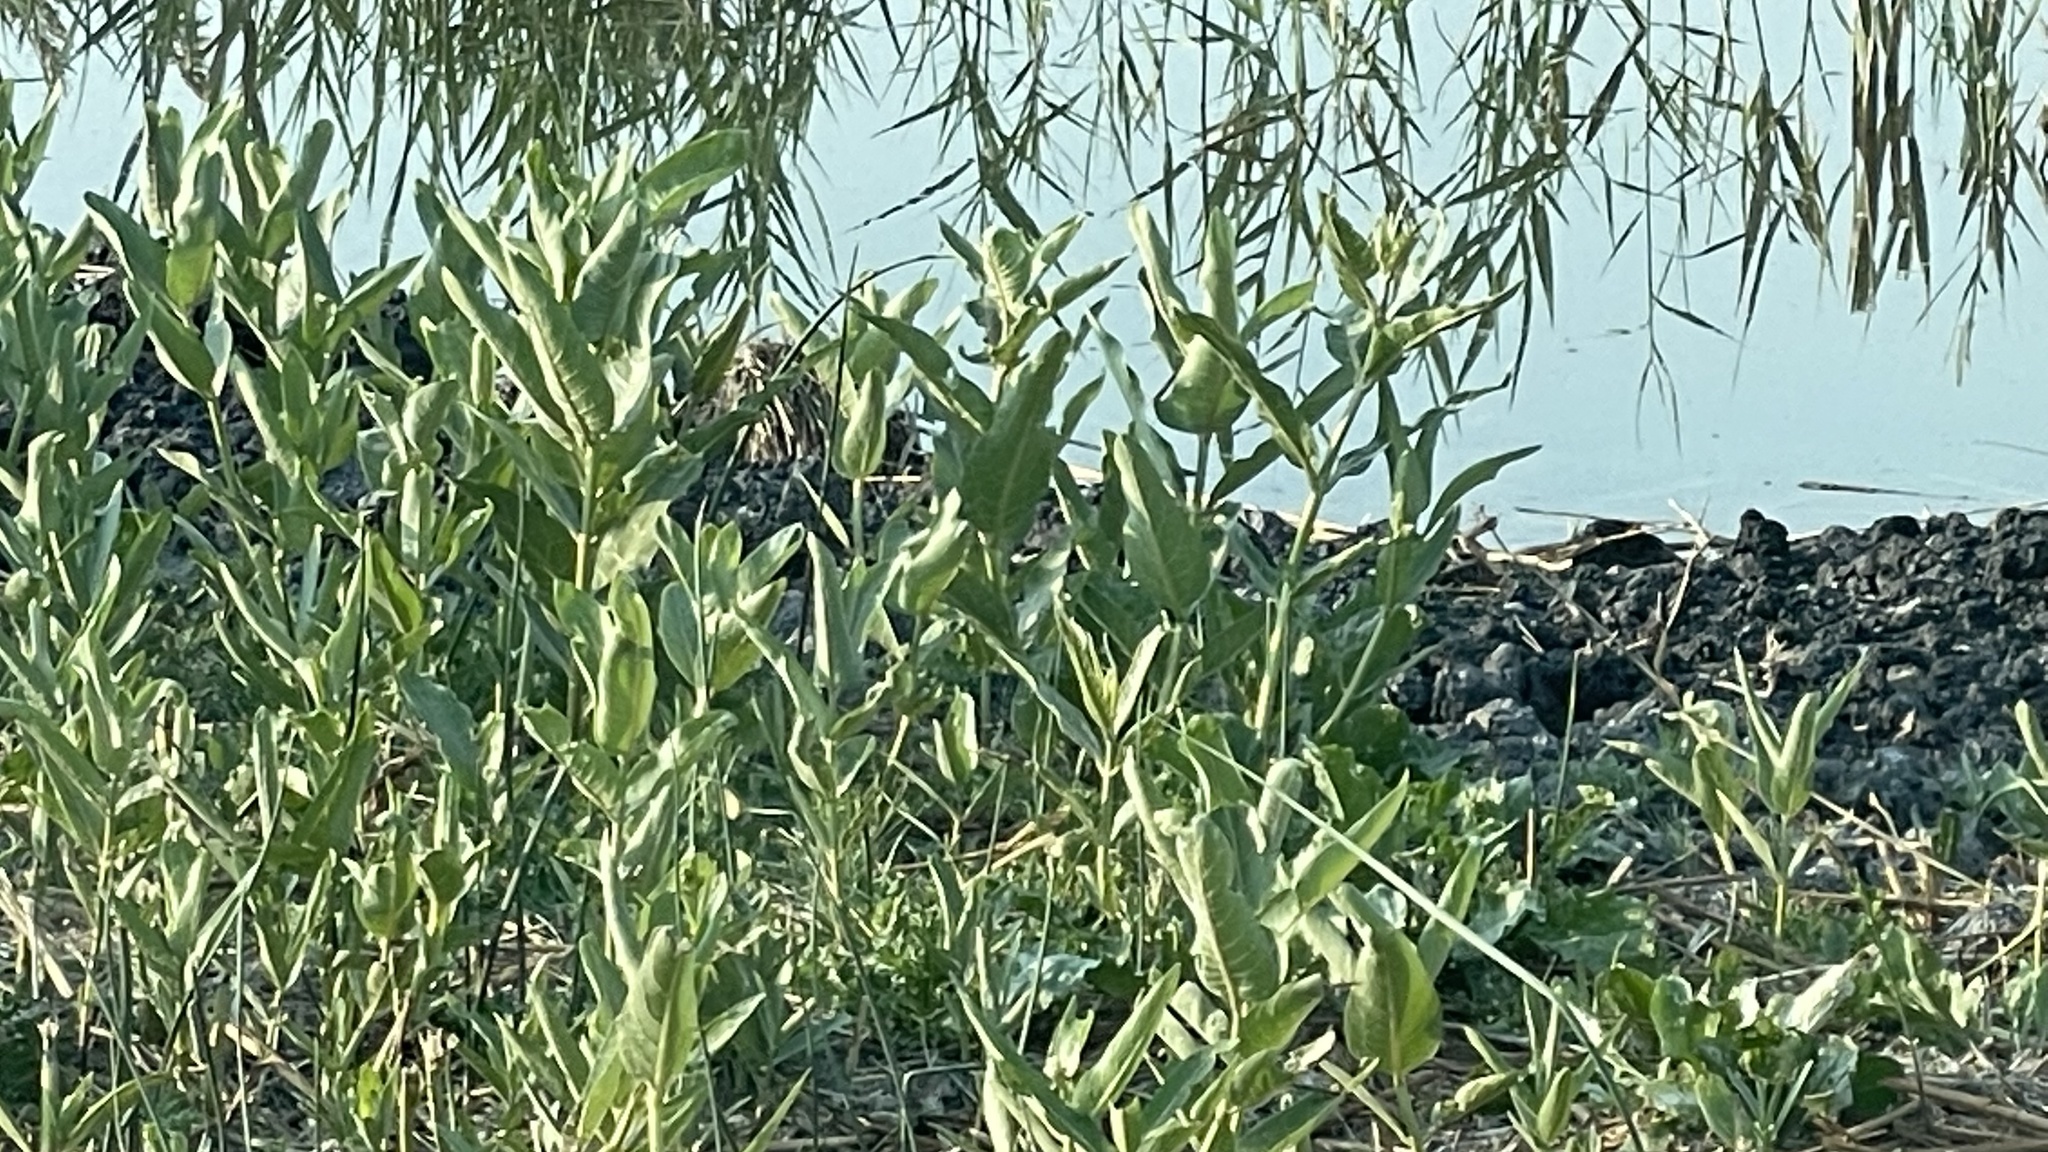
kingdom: Plantae
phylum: Tracheophyta
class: Magnoliopsida
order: Gentianales
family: Apocynaceae
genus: Asclepias
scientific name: Asclepias speciosa
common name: Showy milkweed
